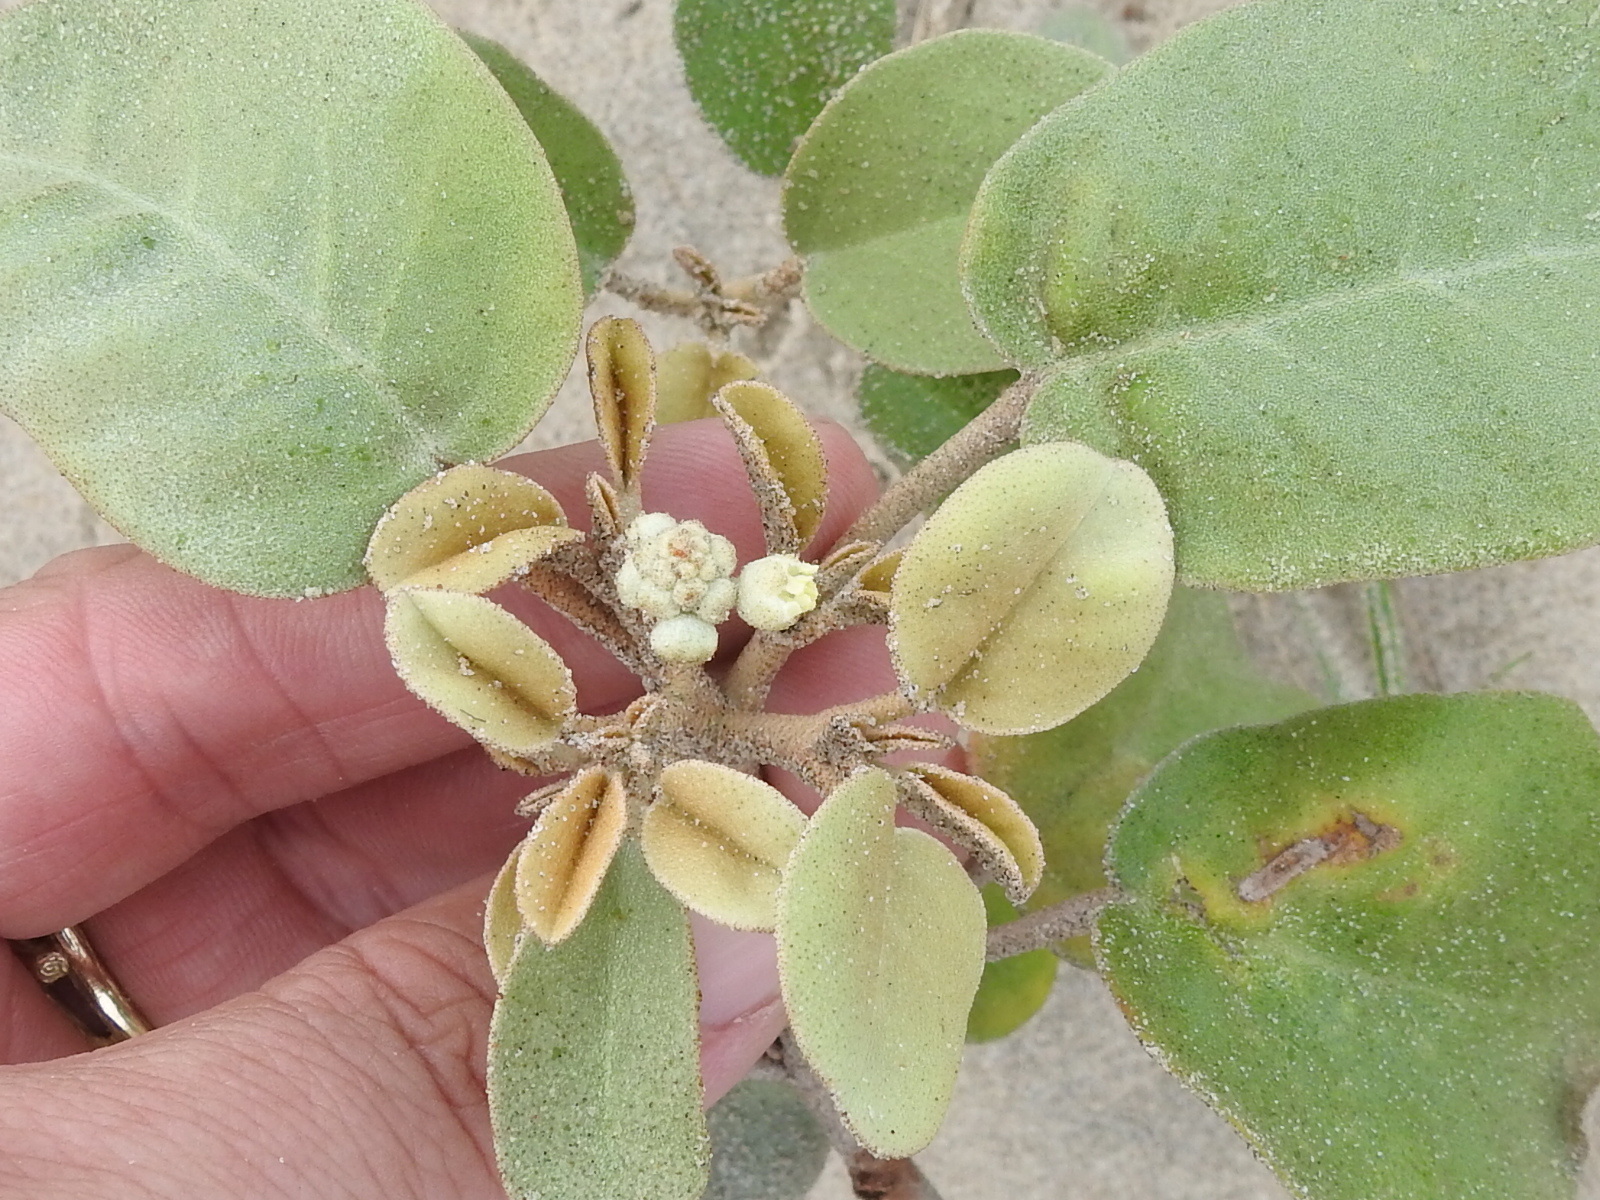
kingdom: Plantae
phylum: Tracheophyta
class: Magnoliopsida
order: Malpighiales
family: Euphorbiaceae
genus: Croton
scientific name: Croton punctatus
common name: Beach-tea
